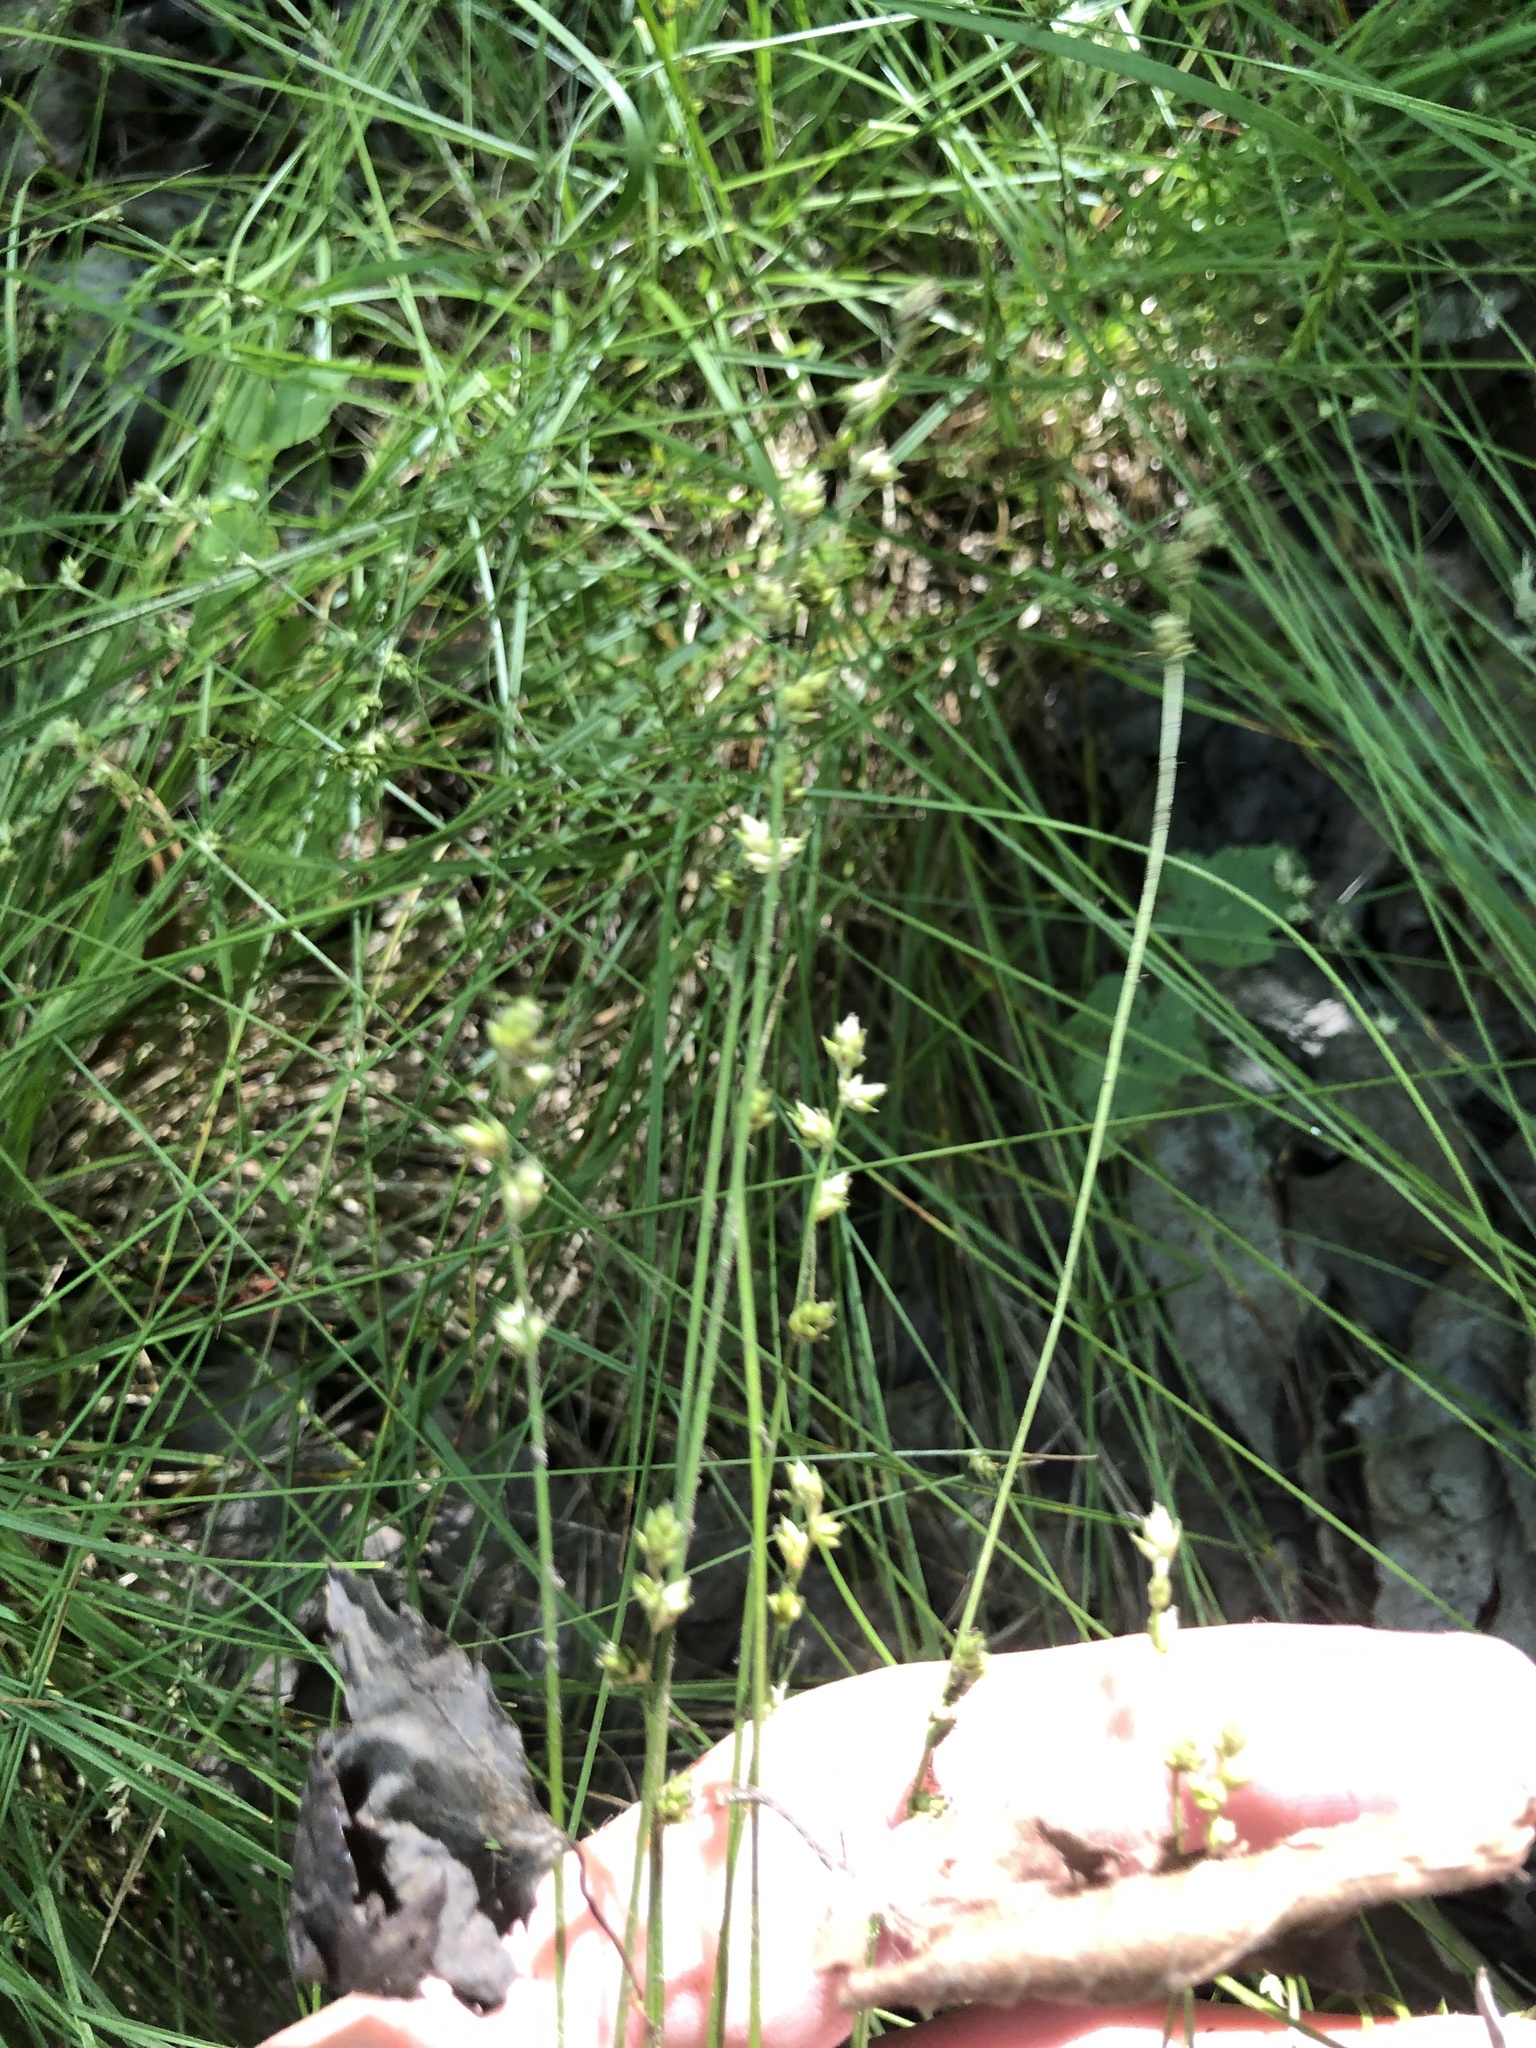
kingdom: Plantae
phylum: Tracheophyta
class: Liliopsida
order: Poales
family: Cyperaceae
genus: Carex
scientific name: Carex brunnescens
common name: Brown sedge
